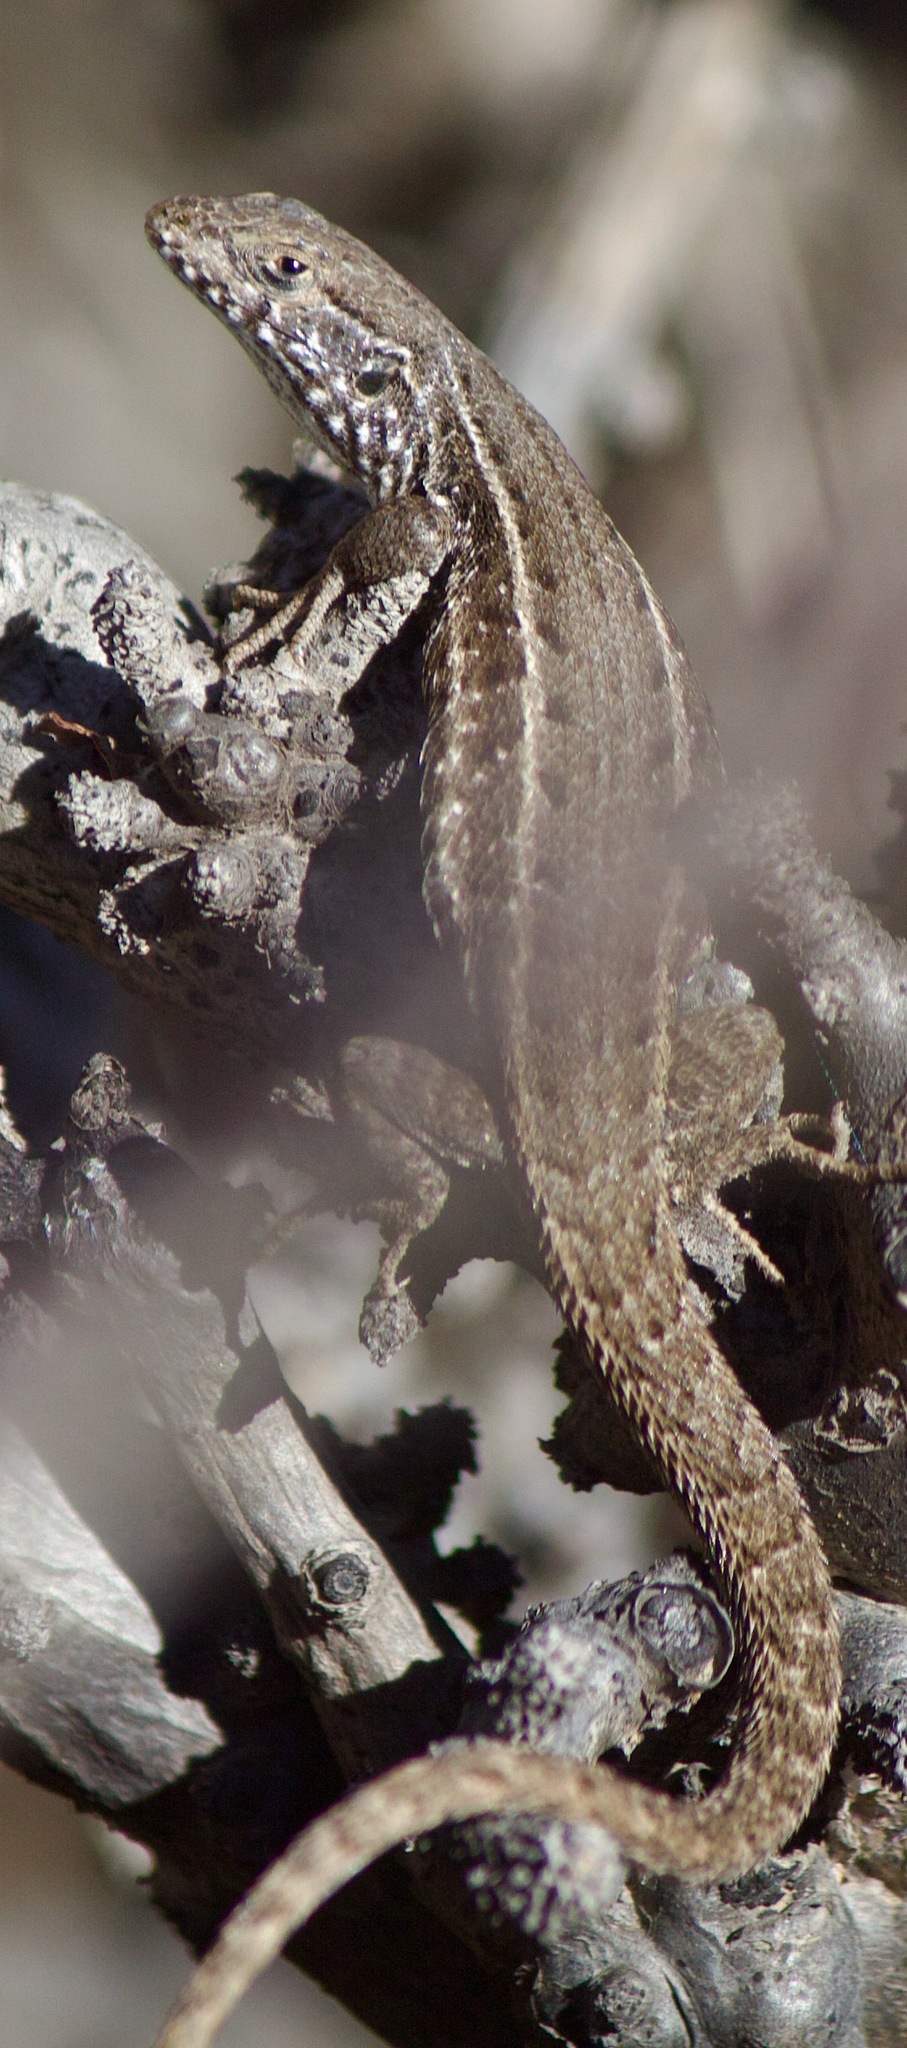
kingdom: Animalia
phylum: Chordata
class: Squamata
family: Liolaemidae
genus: Liolaemus
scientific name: Liolaemus fuscus
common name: Brown tree iguana
